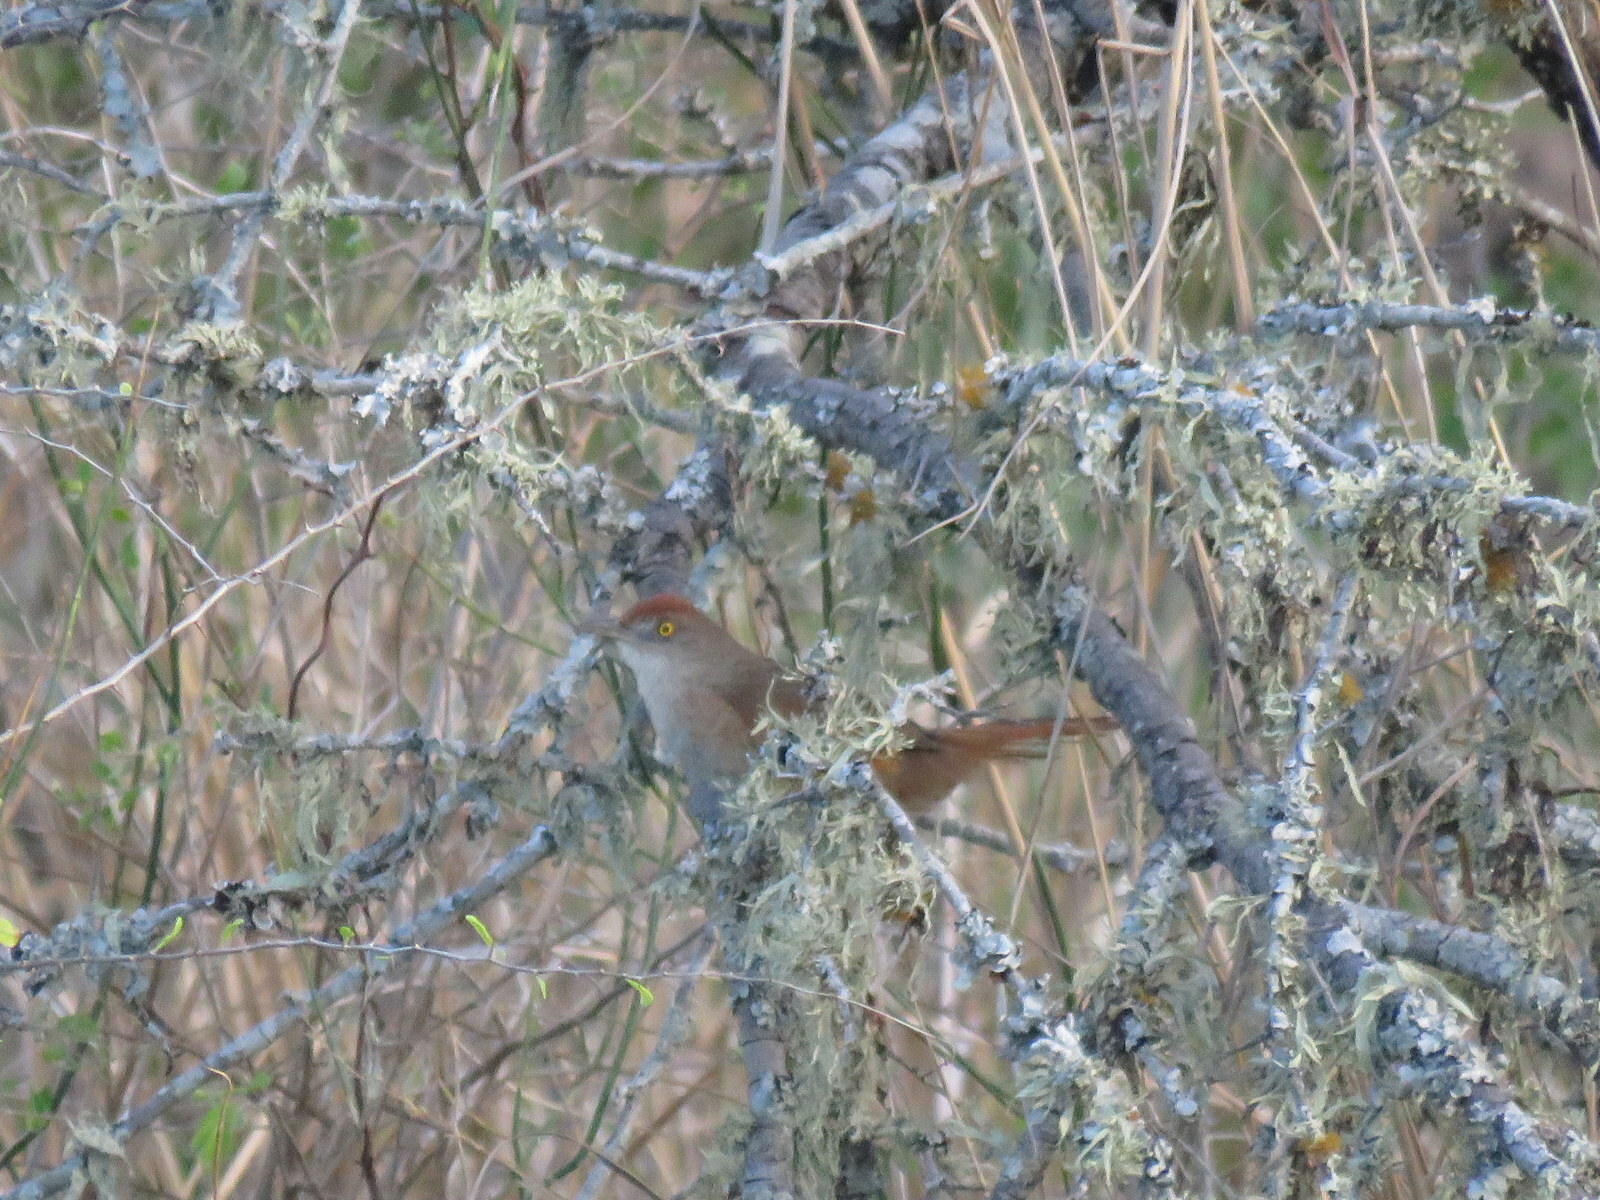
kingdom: Animalia
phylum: Chordata
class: Aves
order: Passeriformes
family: Furnariidae
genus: Phacellodomus
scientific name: Phacellodomus ruber
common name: Greater thornbird
